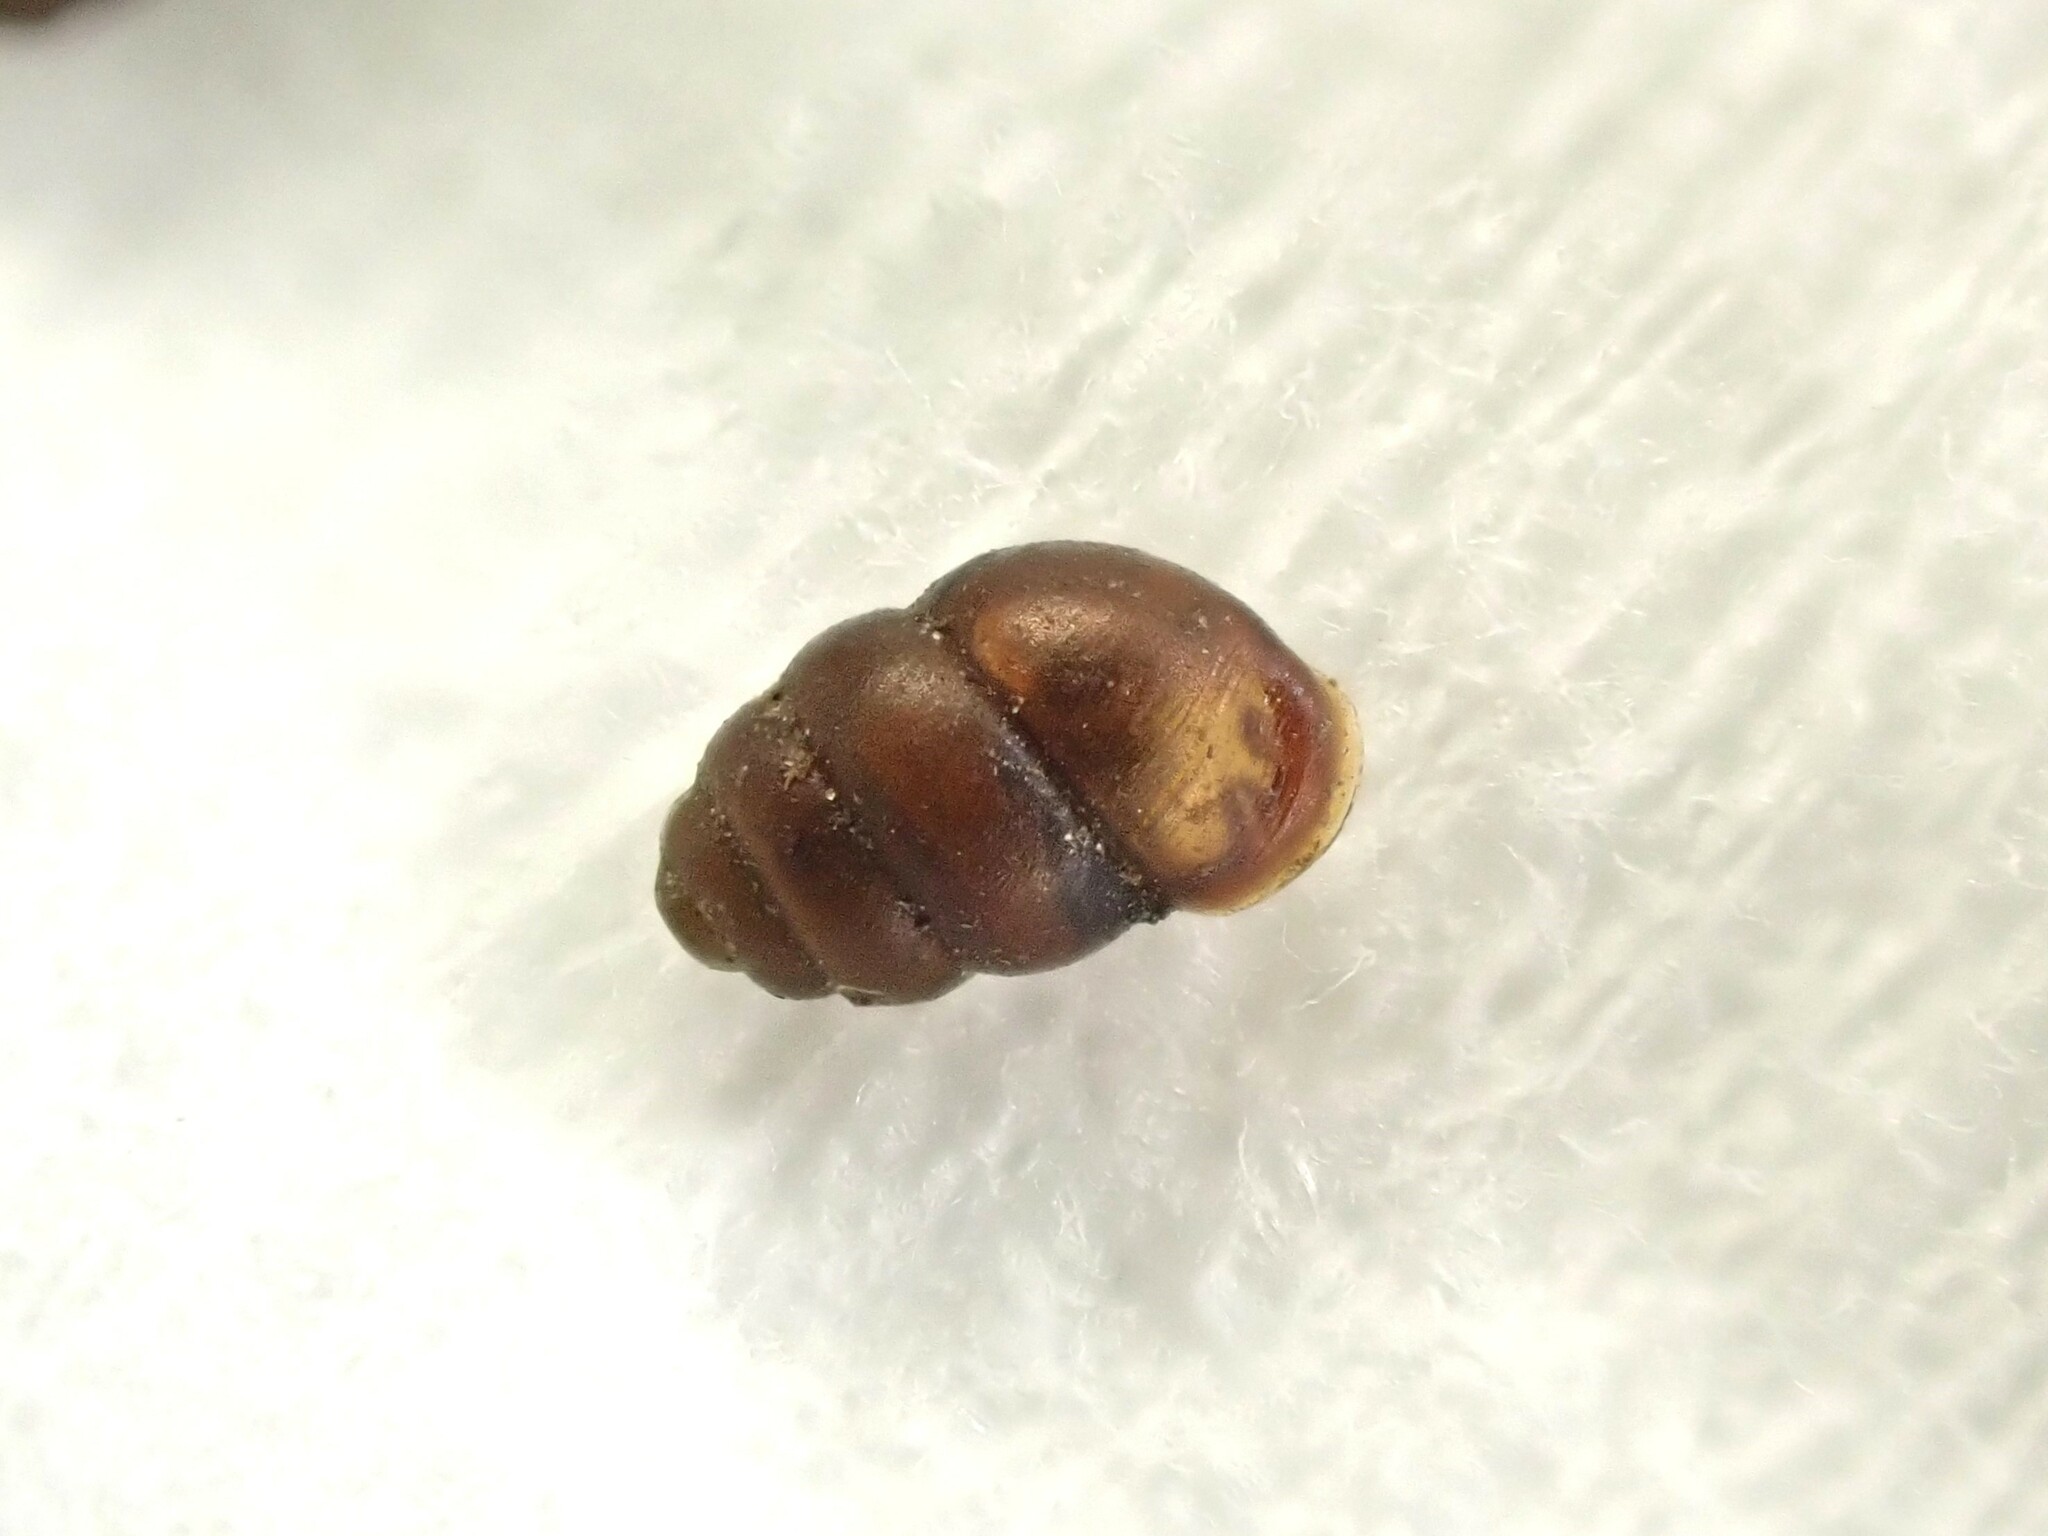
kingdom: Animalia
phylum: Mollusca
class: Gastropoda
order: Stylommatophora
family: Vertiginidae
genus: Vertigo
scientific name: Vertigo ovata
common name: Grassland whorl snail
